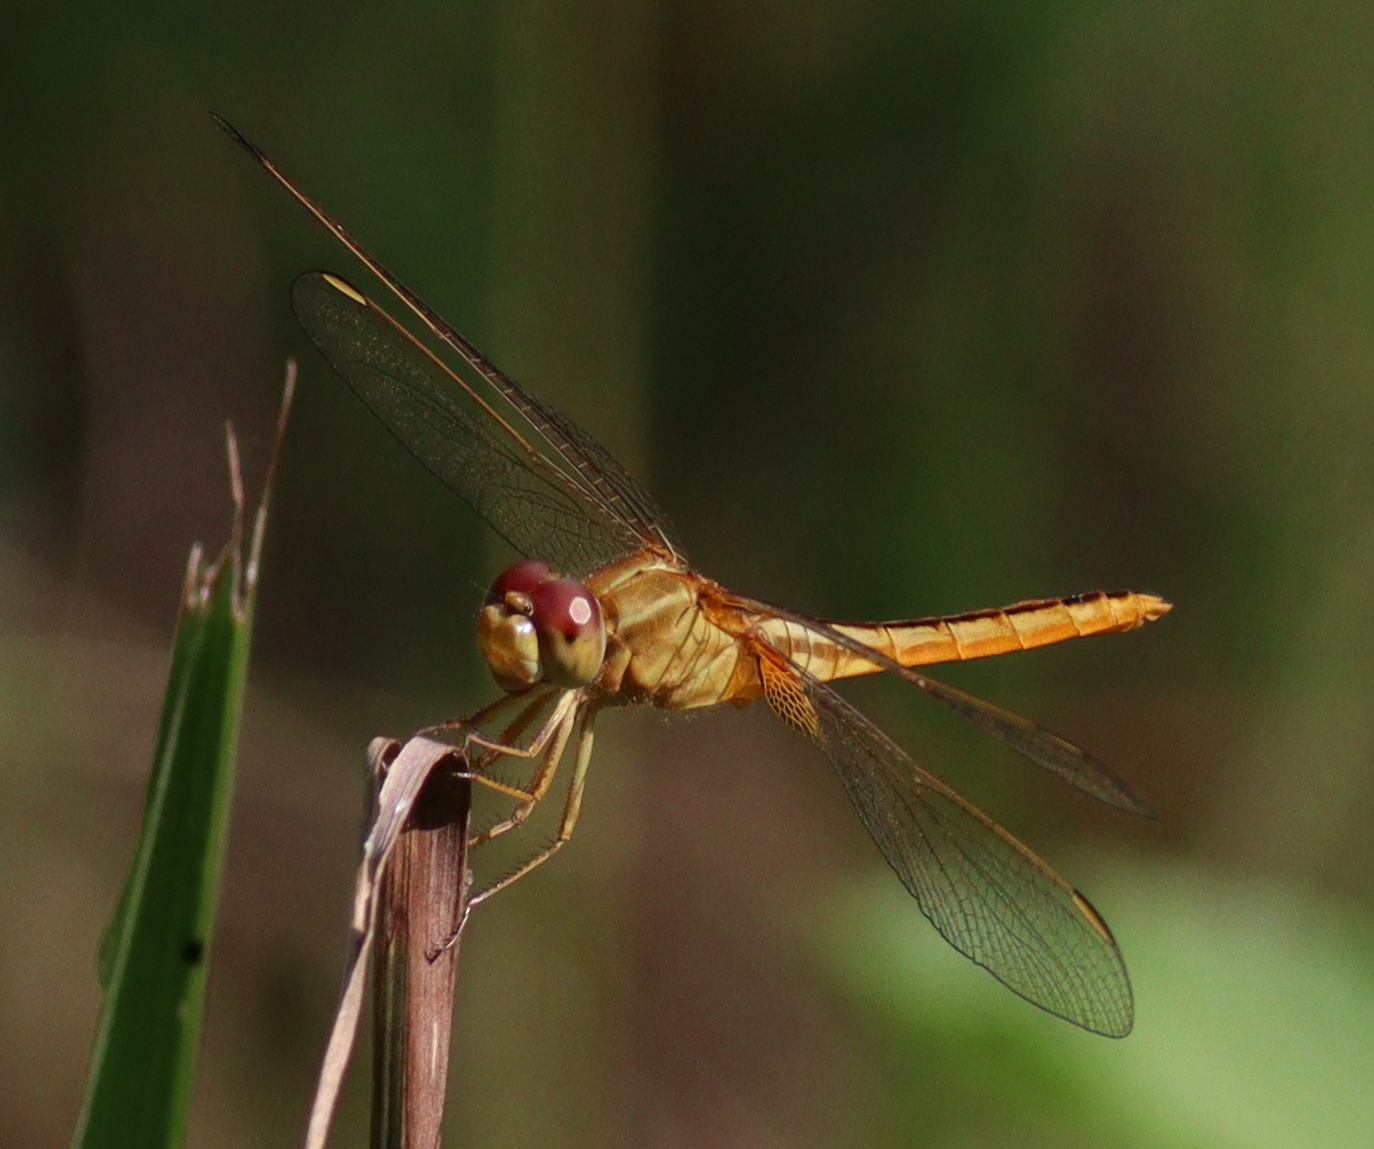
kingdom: Animalia
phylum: Arthropoda
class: Insecta
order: Odonata
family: Libellulidae
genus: Crocothemis
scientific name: Crocothemis servilia
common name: Scarlet skimmer
